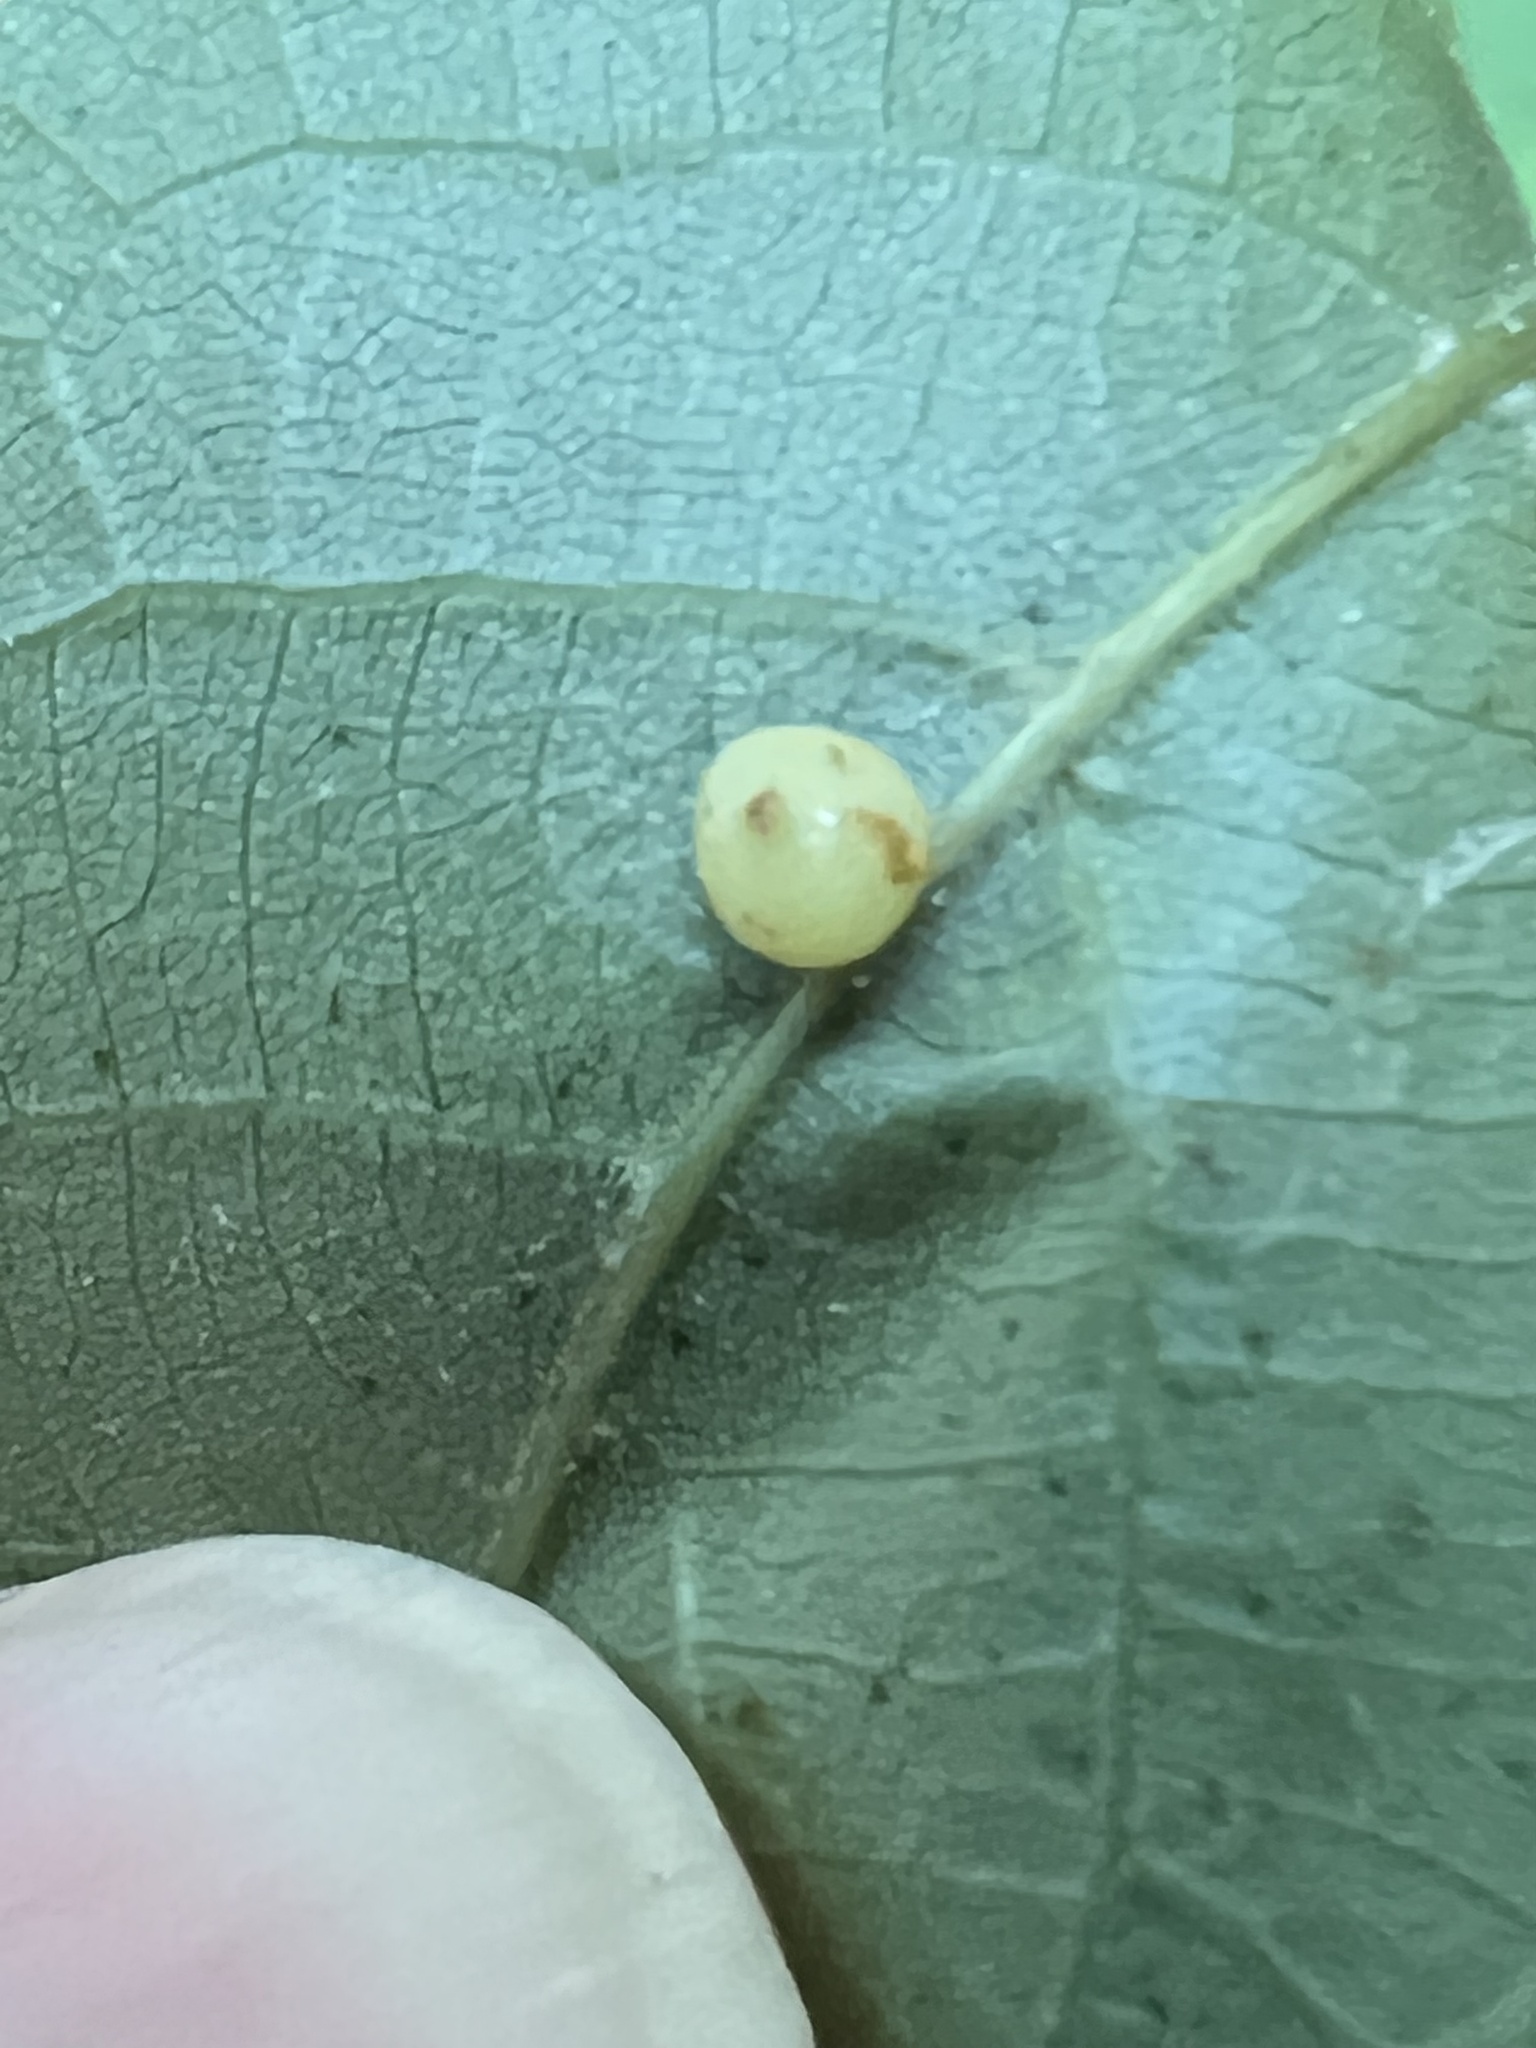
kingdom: Animalia
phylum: Arthropoda
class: Insecta
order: Diptera
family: Cecidomyiidae
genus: Caryomyia
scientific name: Caryomyia caryae
